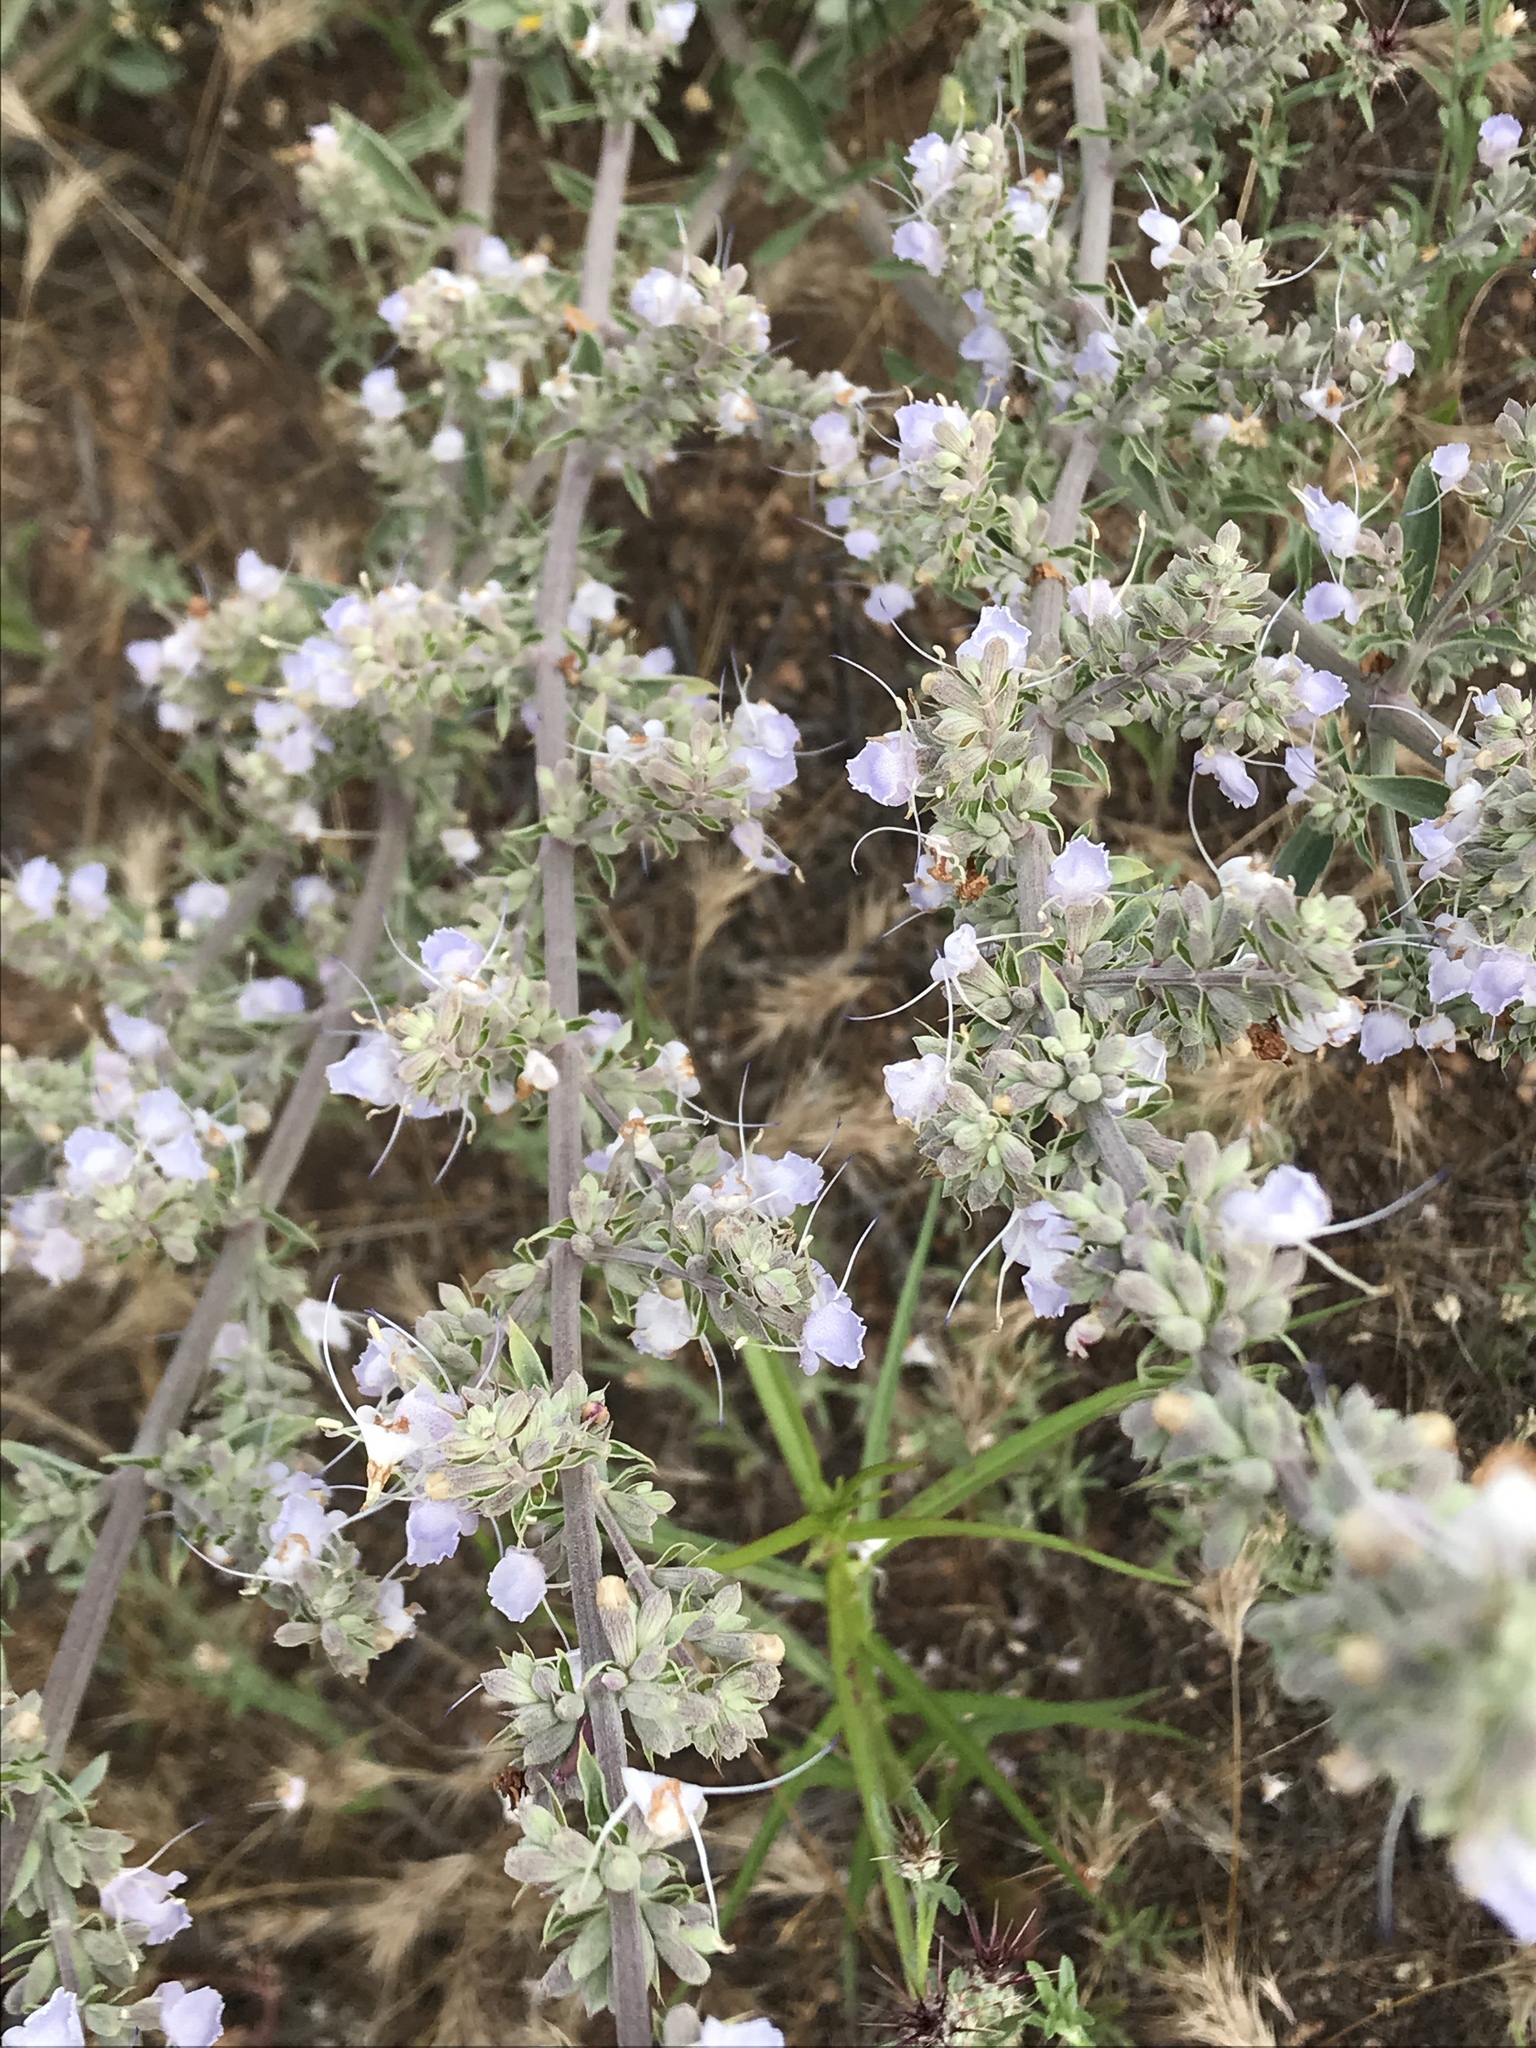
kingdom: Plantae
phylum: Tracheophyta
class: Magnoliopsida
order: Lamiales
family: Lamiaceae
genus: Salvia
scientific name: Salvia apiana
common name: White sage
